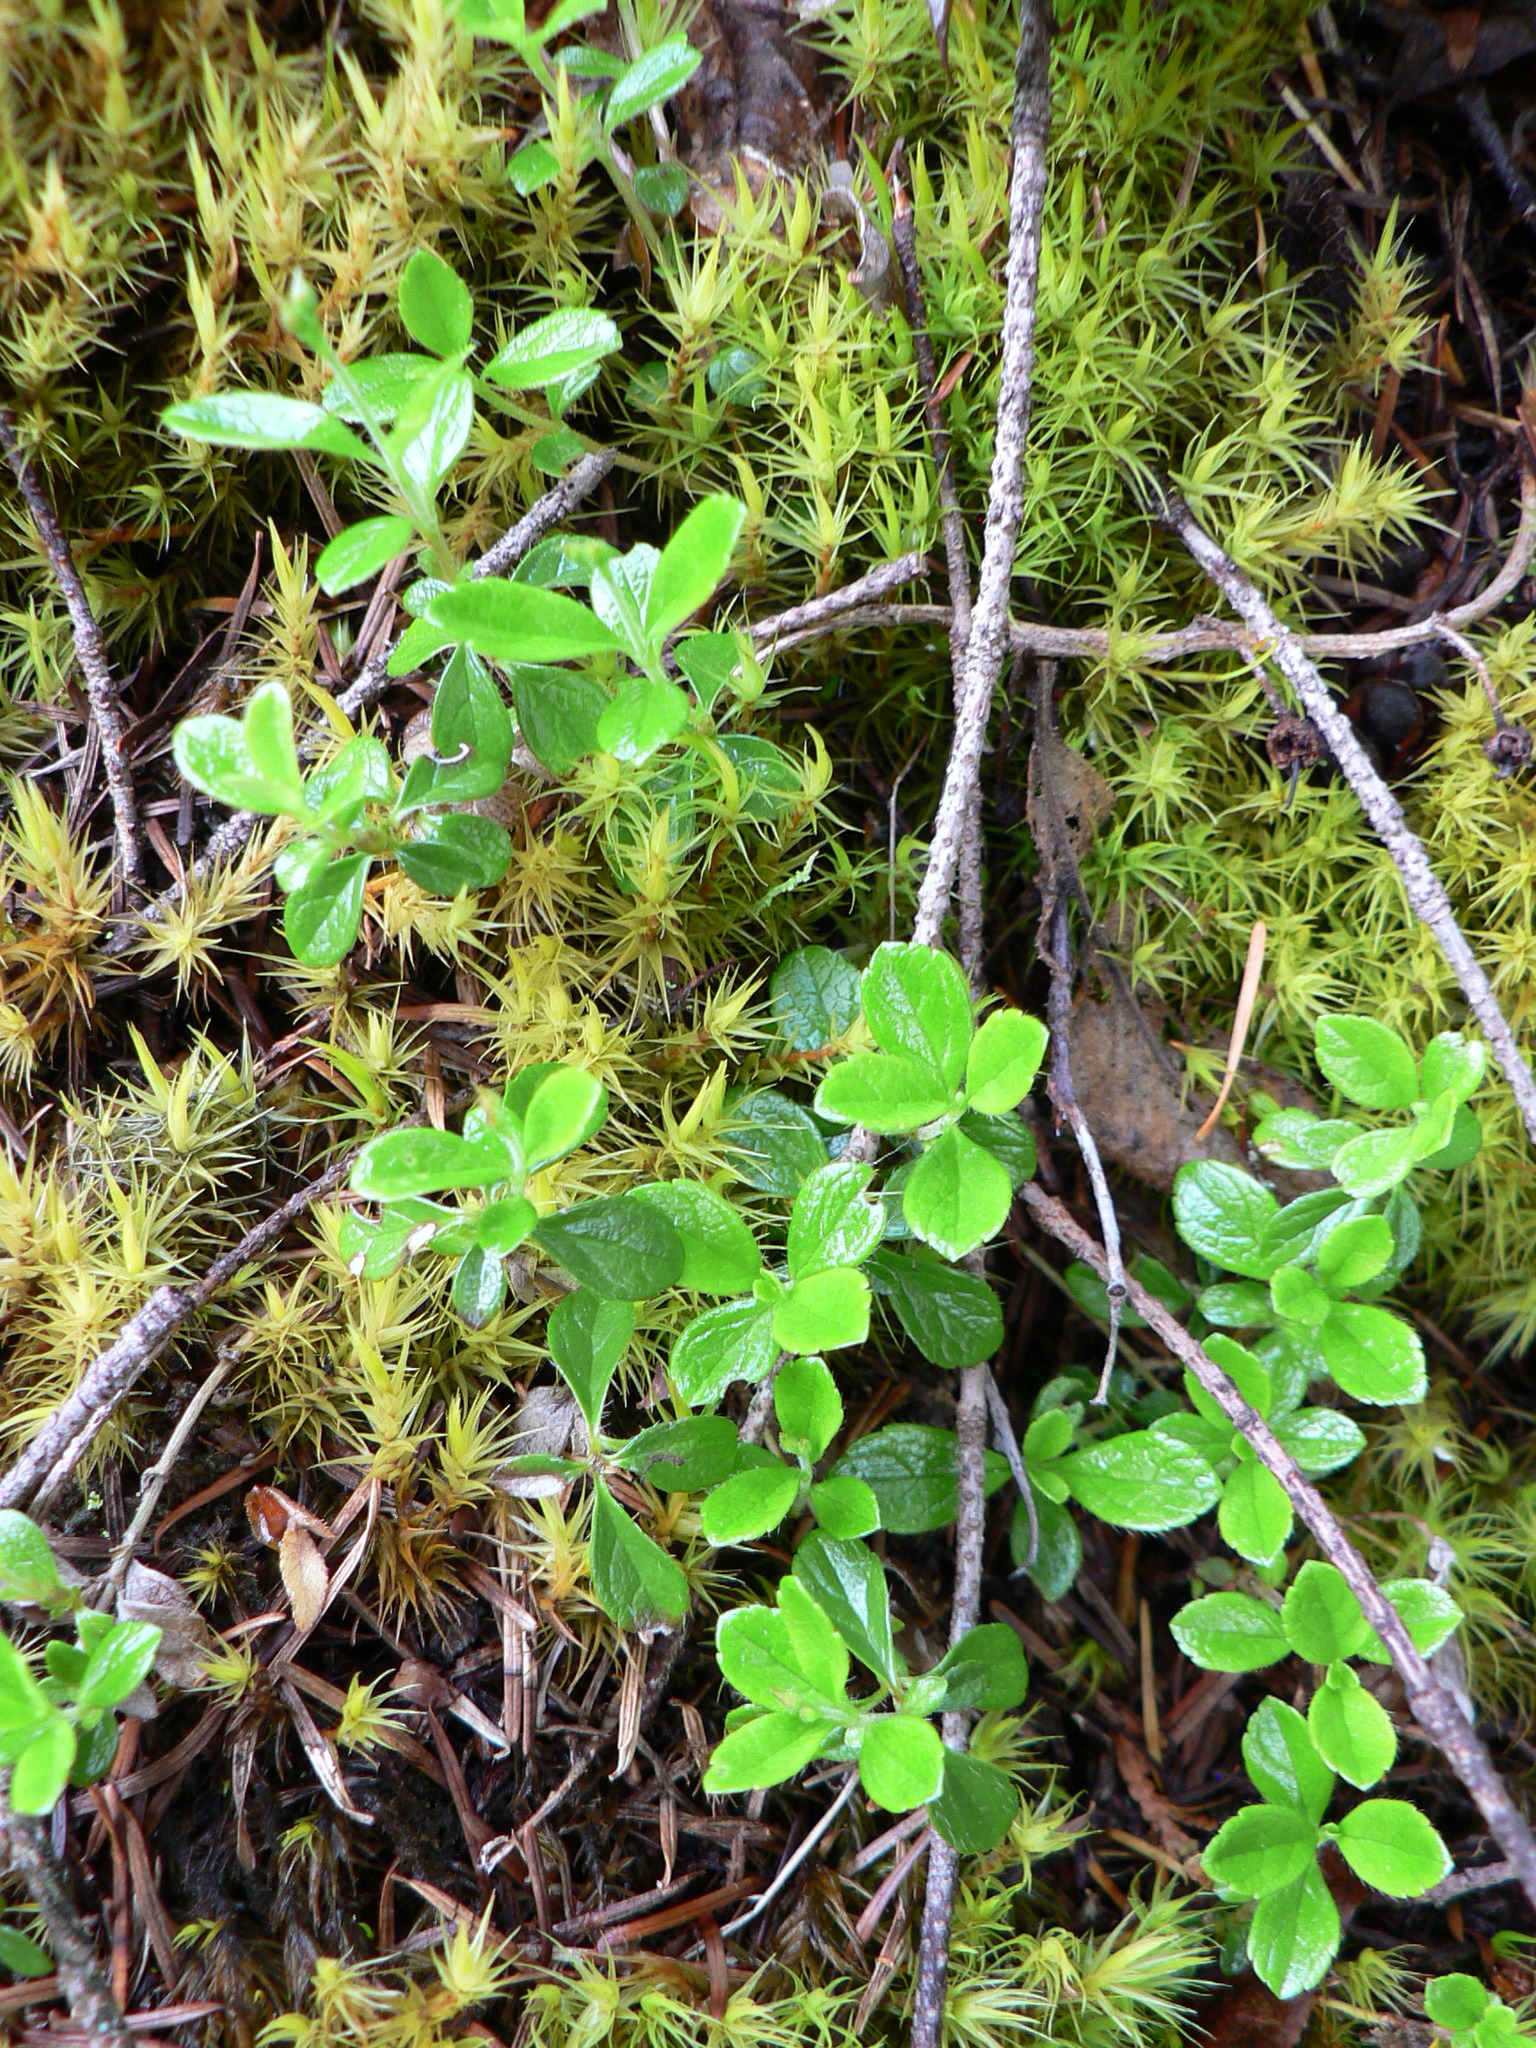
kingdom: Plantae
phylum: Tracheophyta
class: Magnoliopsida
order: Dipsacales
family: Caprifoliaceae
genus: Linnaea
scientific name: Linnaea borealis
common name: Twinflower
